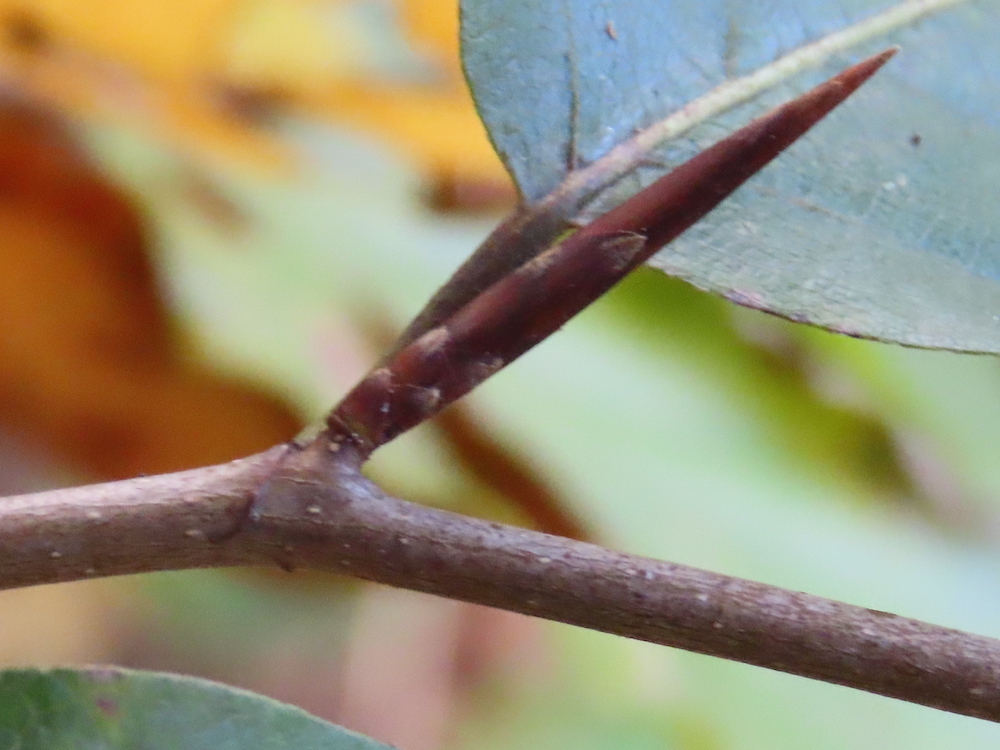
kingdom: Plantae
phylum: Tracheophyta
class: Magnoliopsida
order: Fagales
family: Fagaceae
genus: Fagus
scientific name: Fagus sylvatica
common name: Beech
